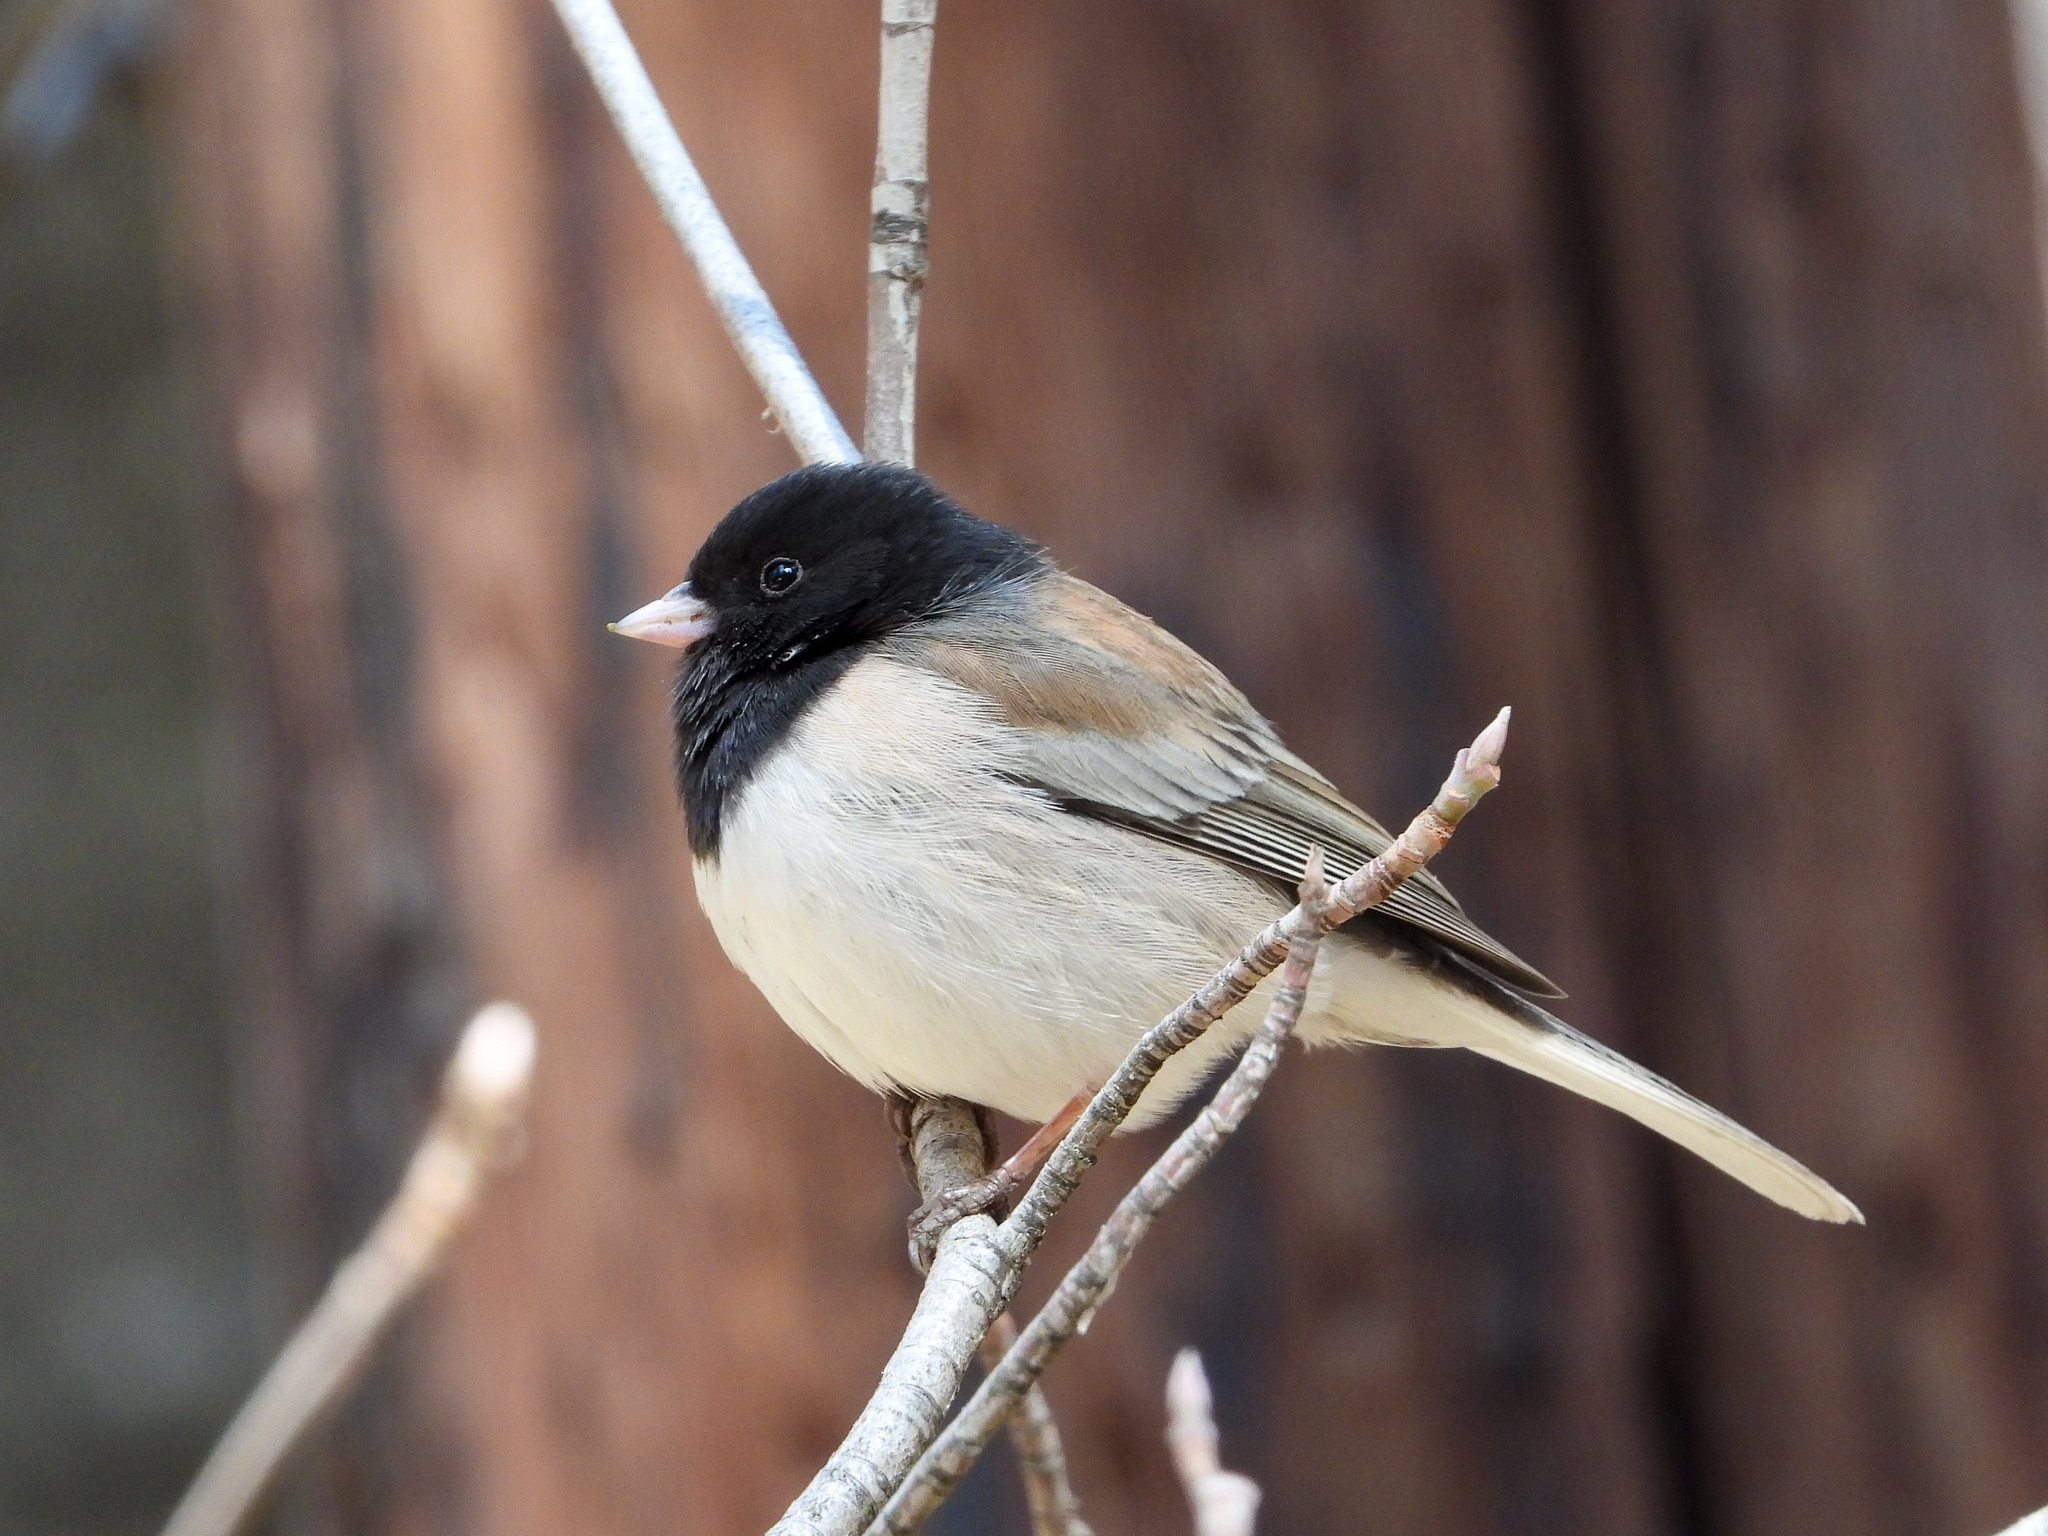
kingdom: Animalia
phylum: Chordata
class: Aves
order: Passeriformes
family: Passerellidae
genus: Junco
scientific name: Junco hyemalis
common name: Dark-eyed junco
